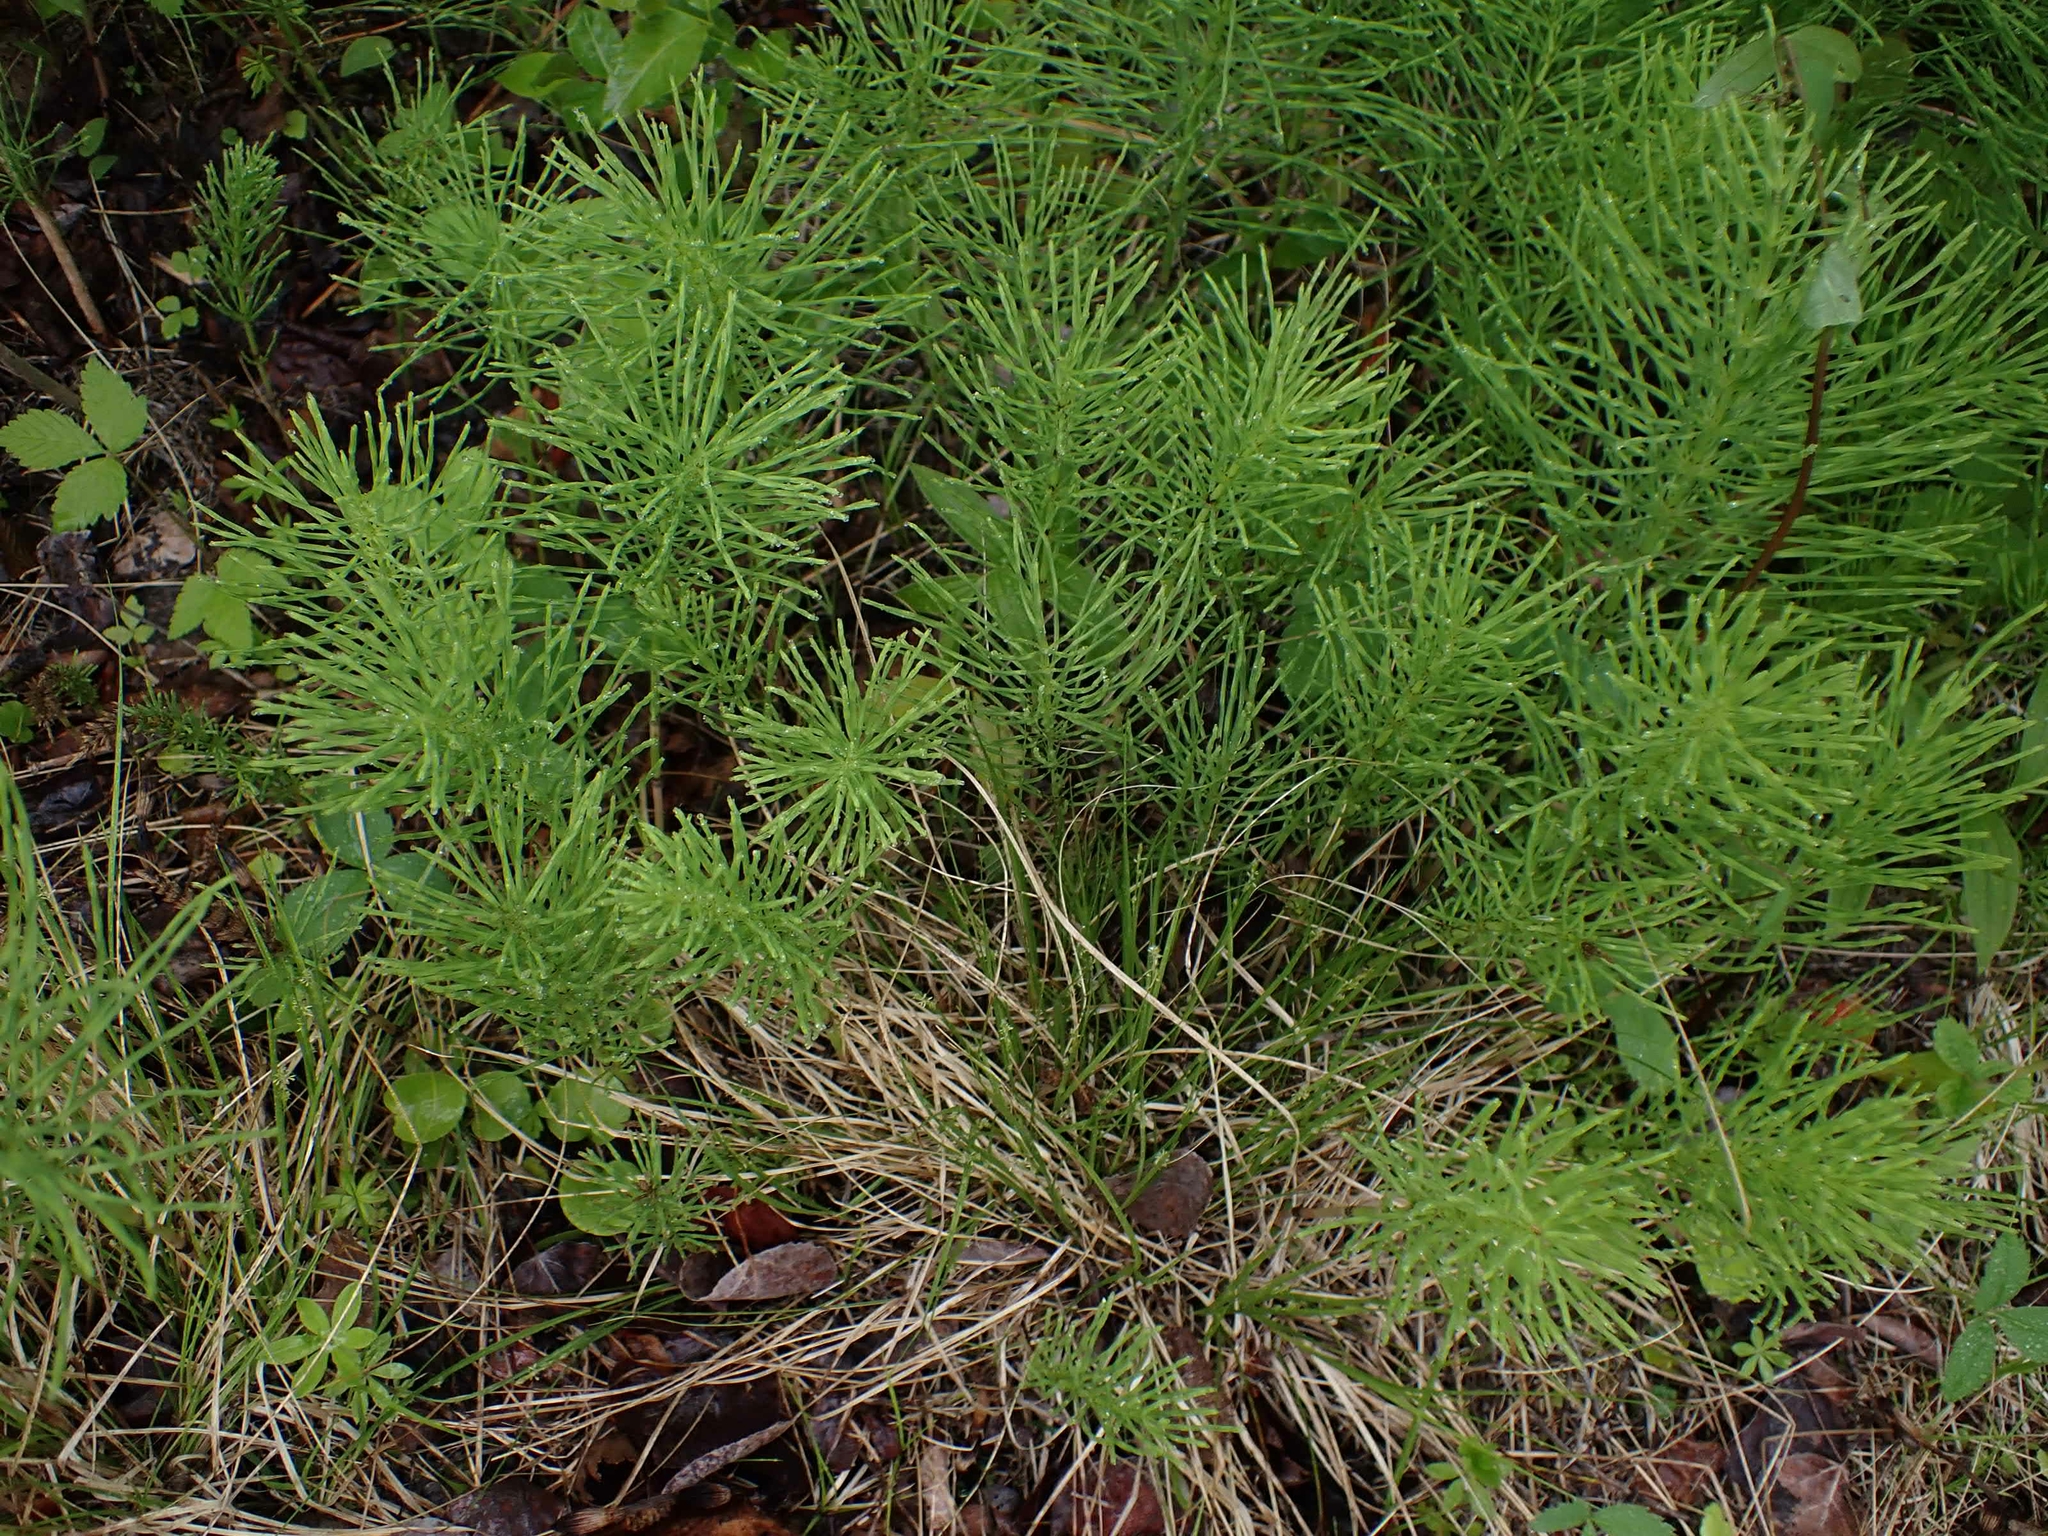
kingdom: Plantae
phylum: Tracheophyta
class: Polypodiopsida
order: Equisetales
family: Equisetaceae
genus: Equisetum
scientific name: Equisetum arvense
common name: Field horsetail
